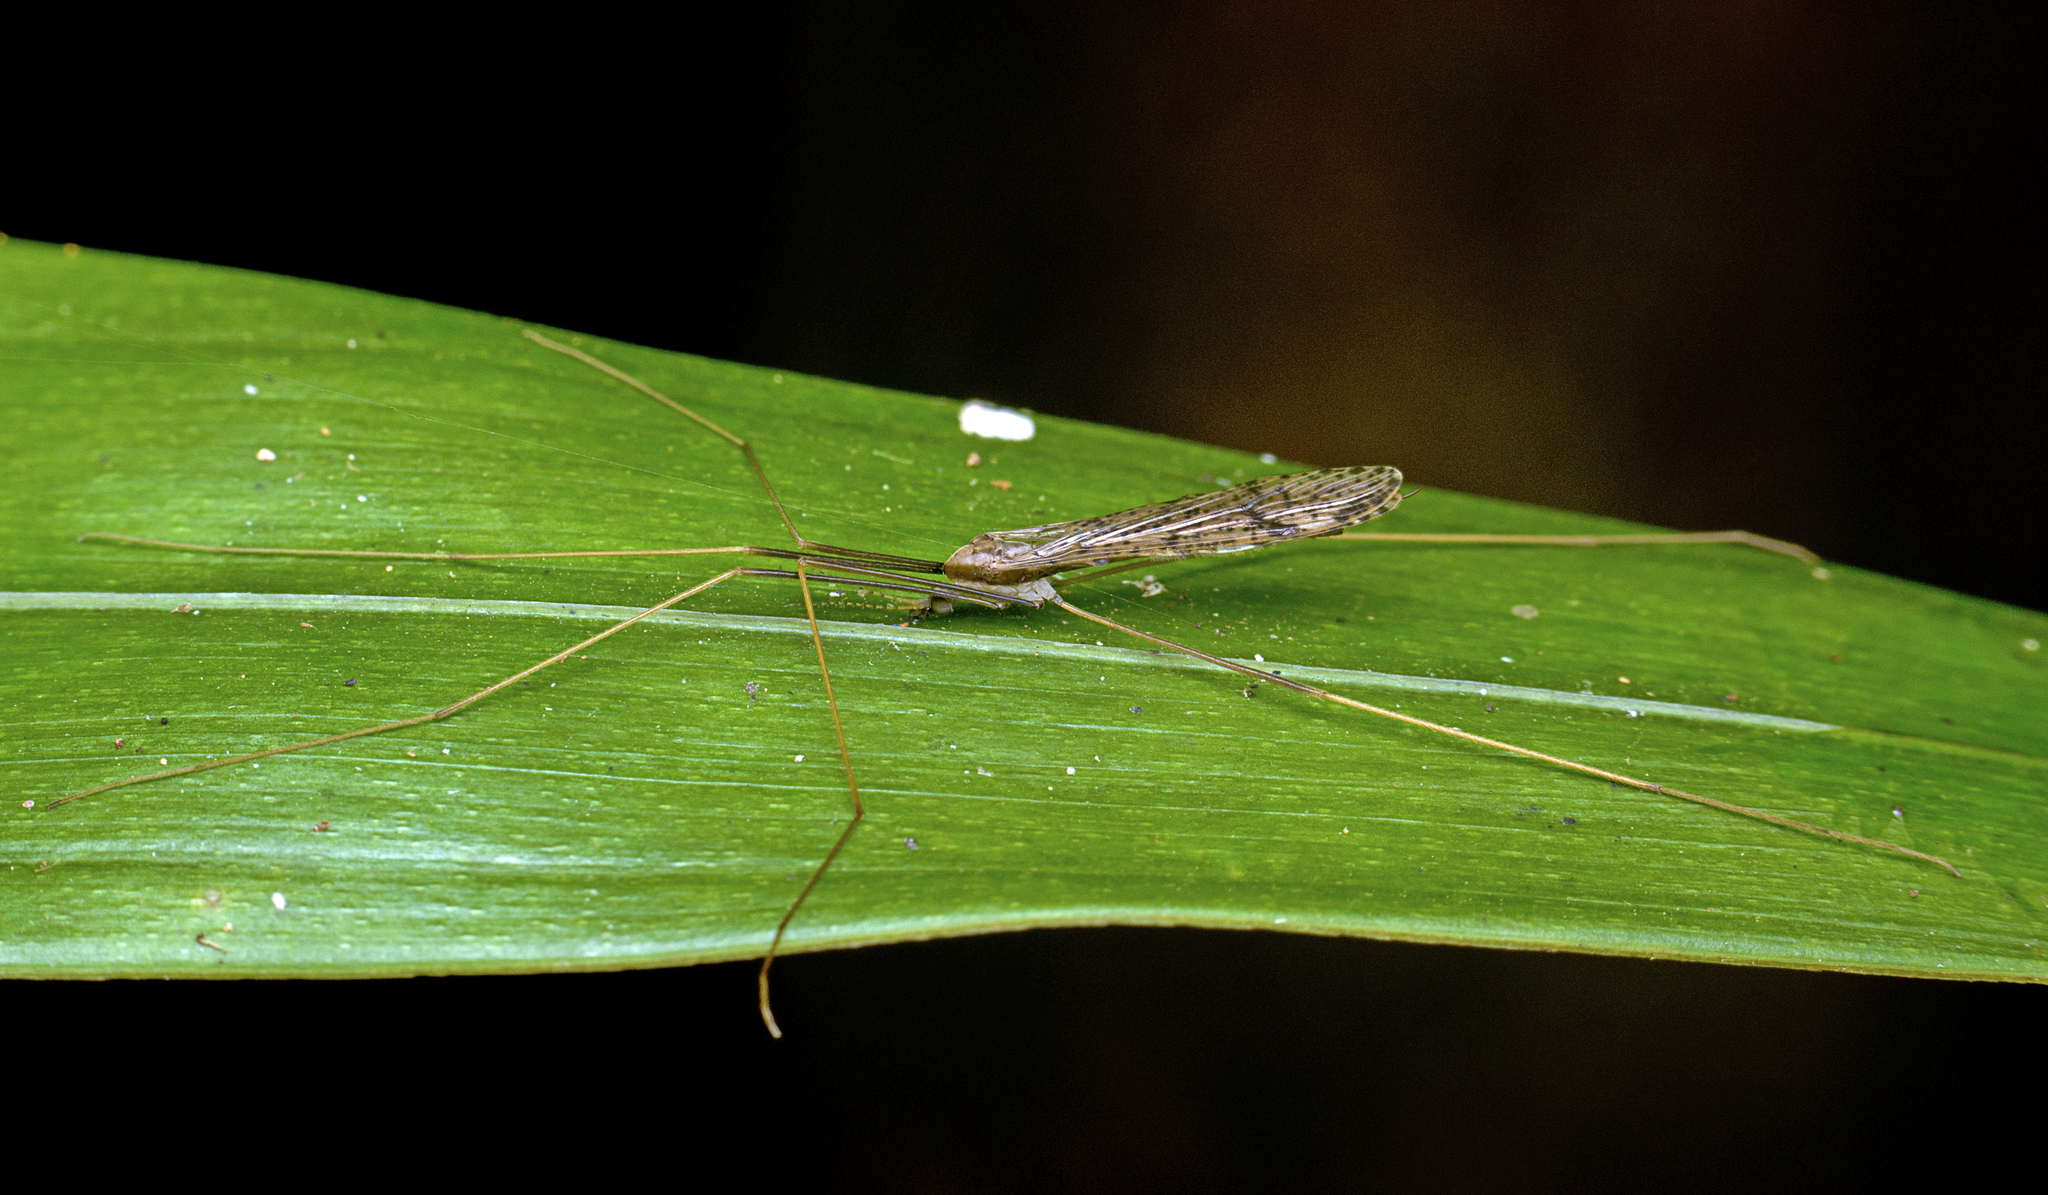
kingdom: Animalia
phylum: Arthropoda
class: Insecta
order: Diptera
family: Limoniidae
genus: Austrolimnophila
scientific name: Austrolimnophila antiqua
